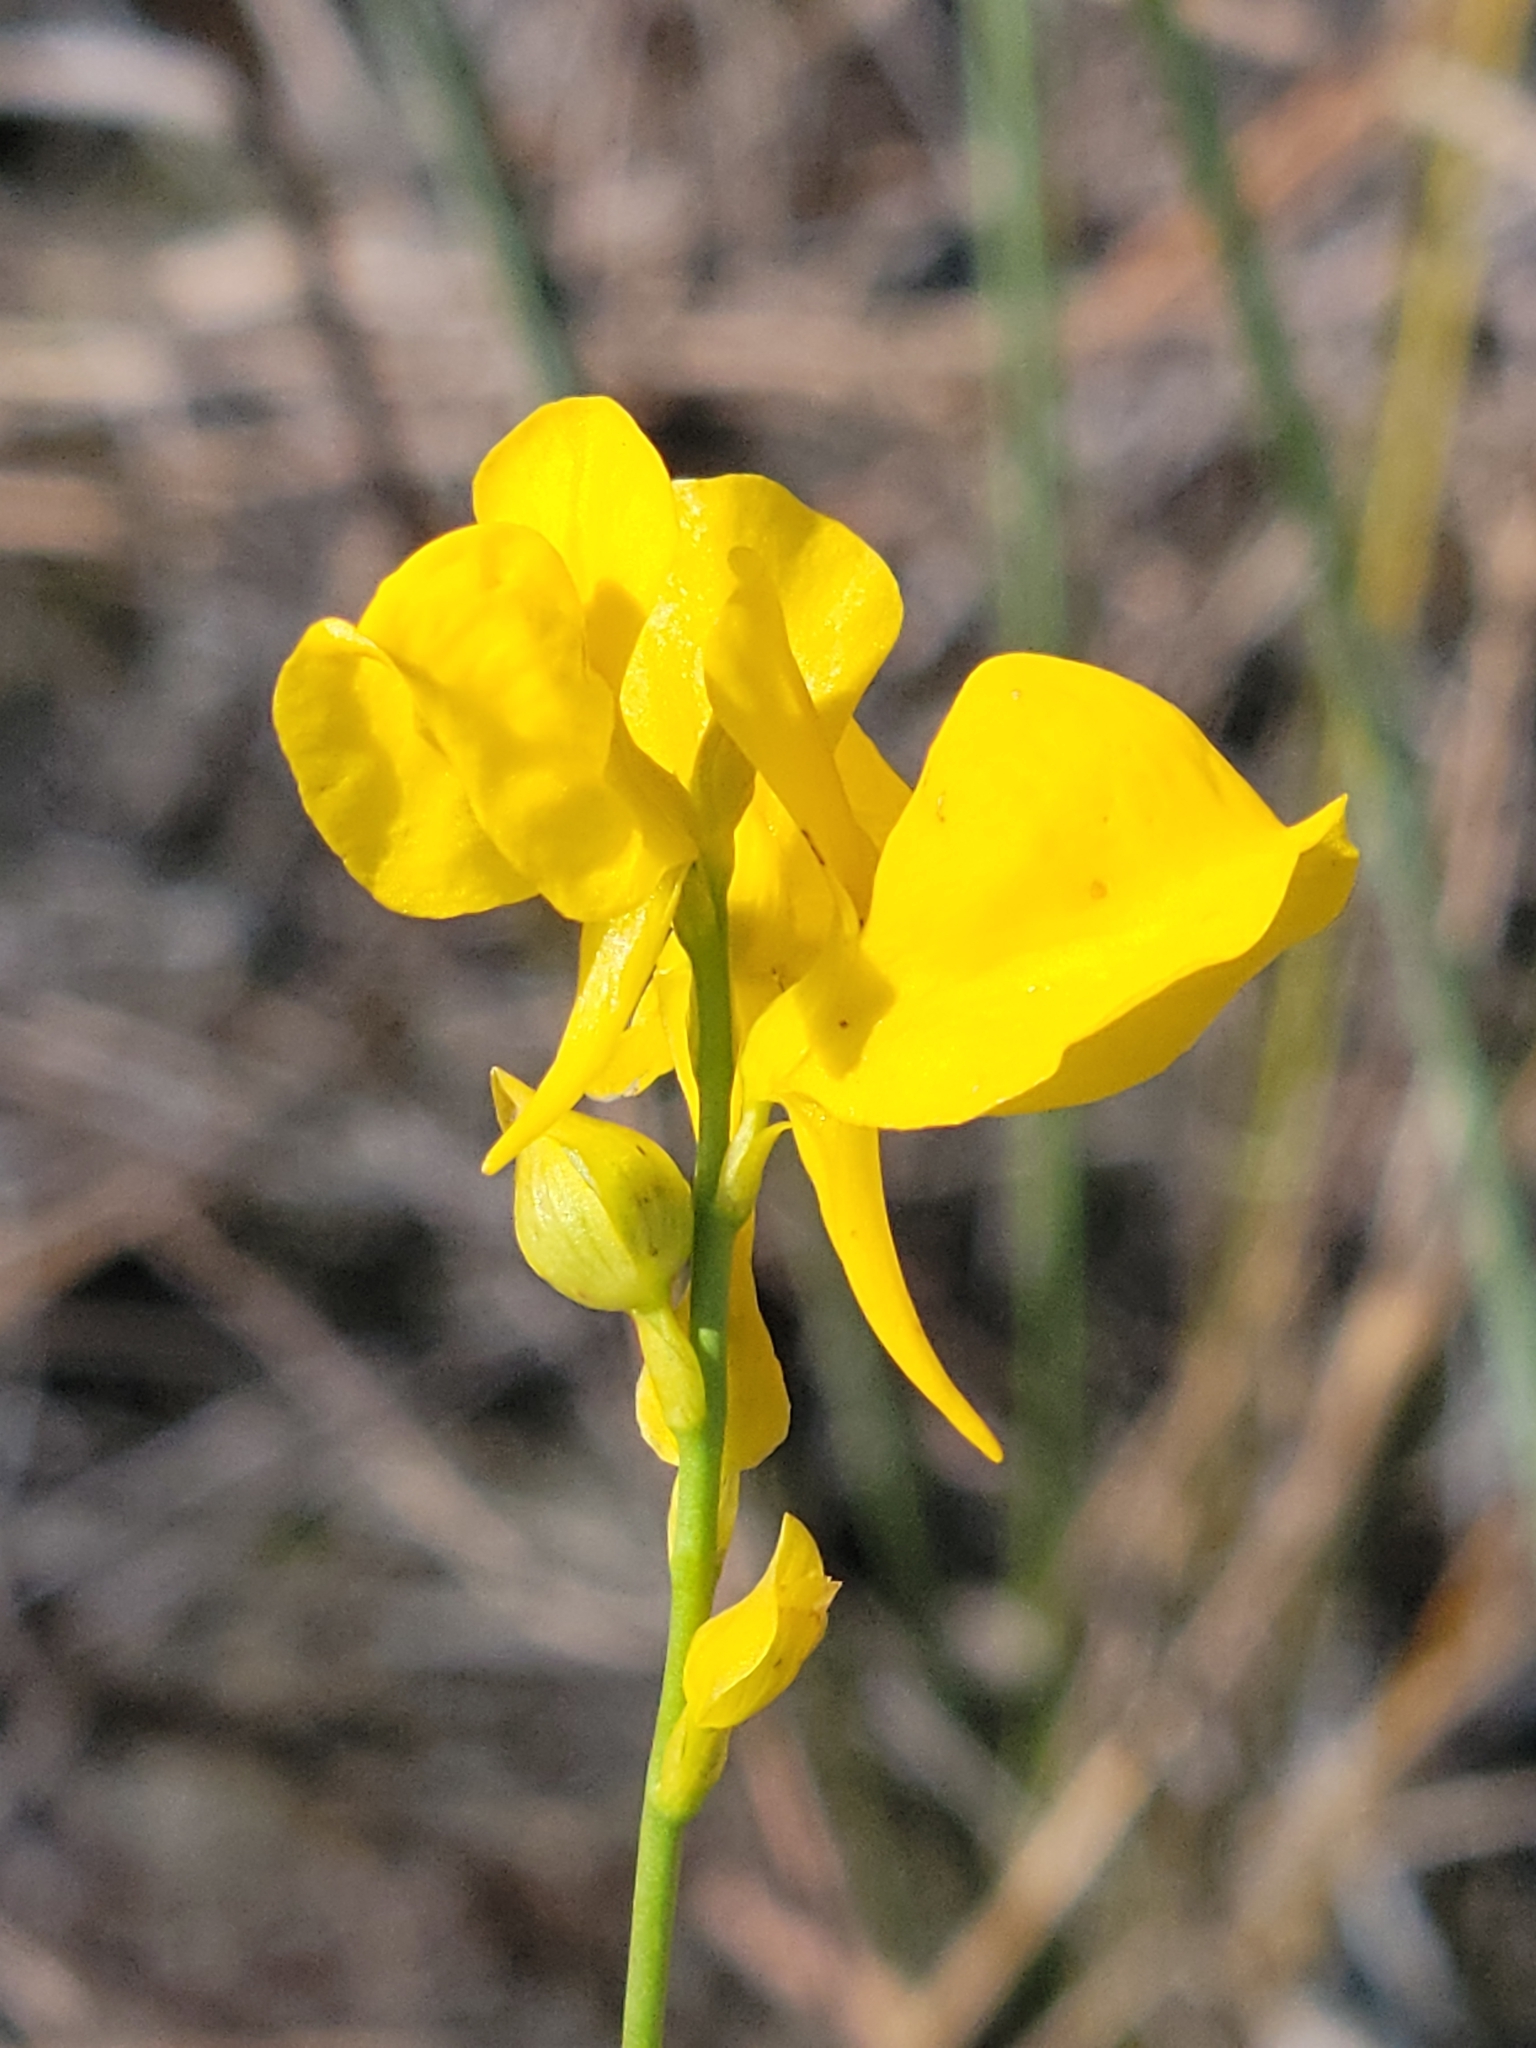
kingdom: Plantae
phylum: Tracheophyta
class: Magnoliopsida
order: Lamiales
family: Lentibulariaceae
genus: Utricularia
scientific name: Utricularia cornuta
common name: Horned bladderwort
